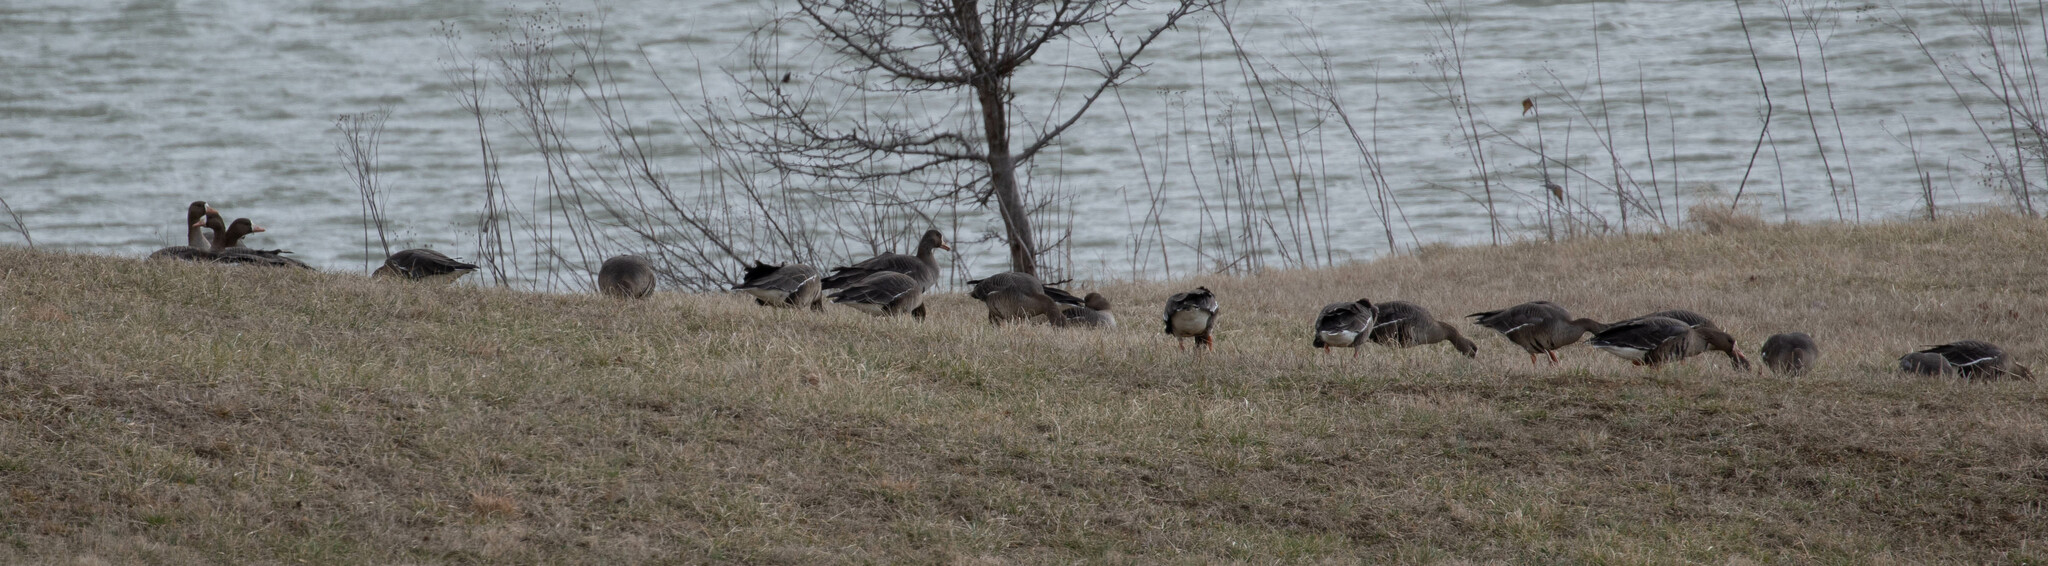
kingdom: Animalia
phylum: Chordata
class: Aves
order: Anseriformes
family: Anatidae
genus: Anser
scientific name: Anser albifrons
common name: Greater white-fronted goose
